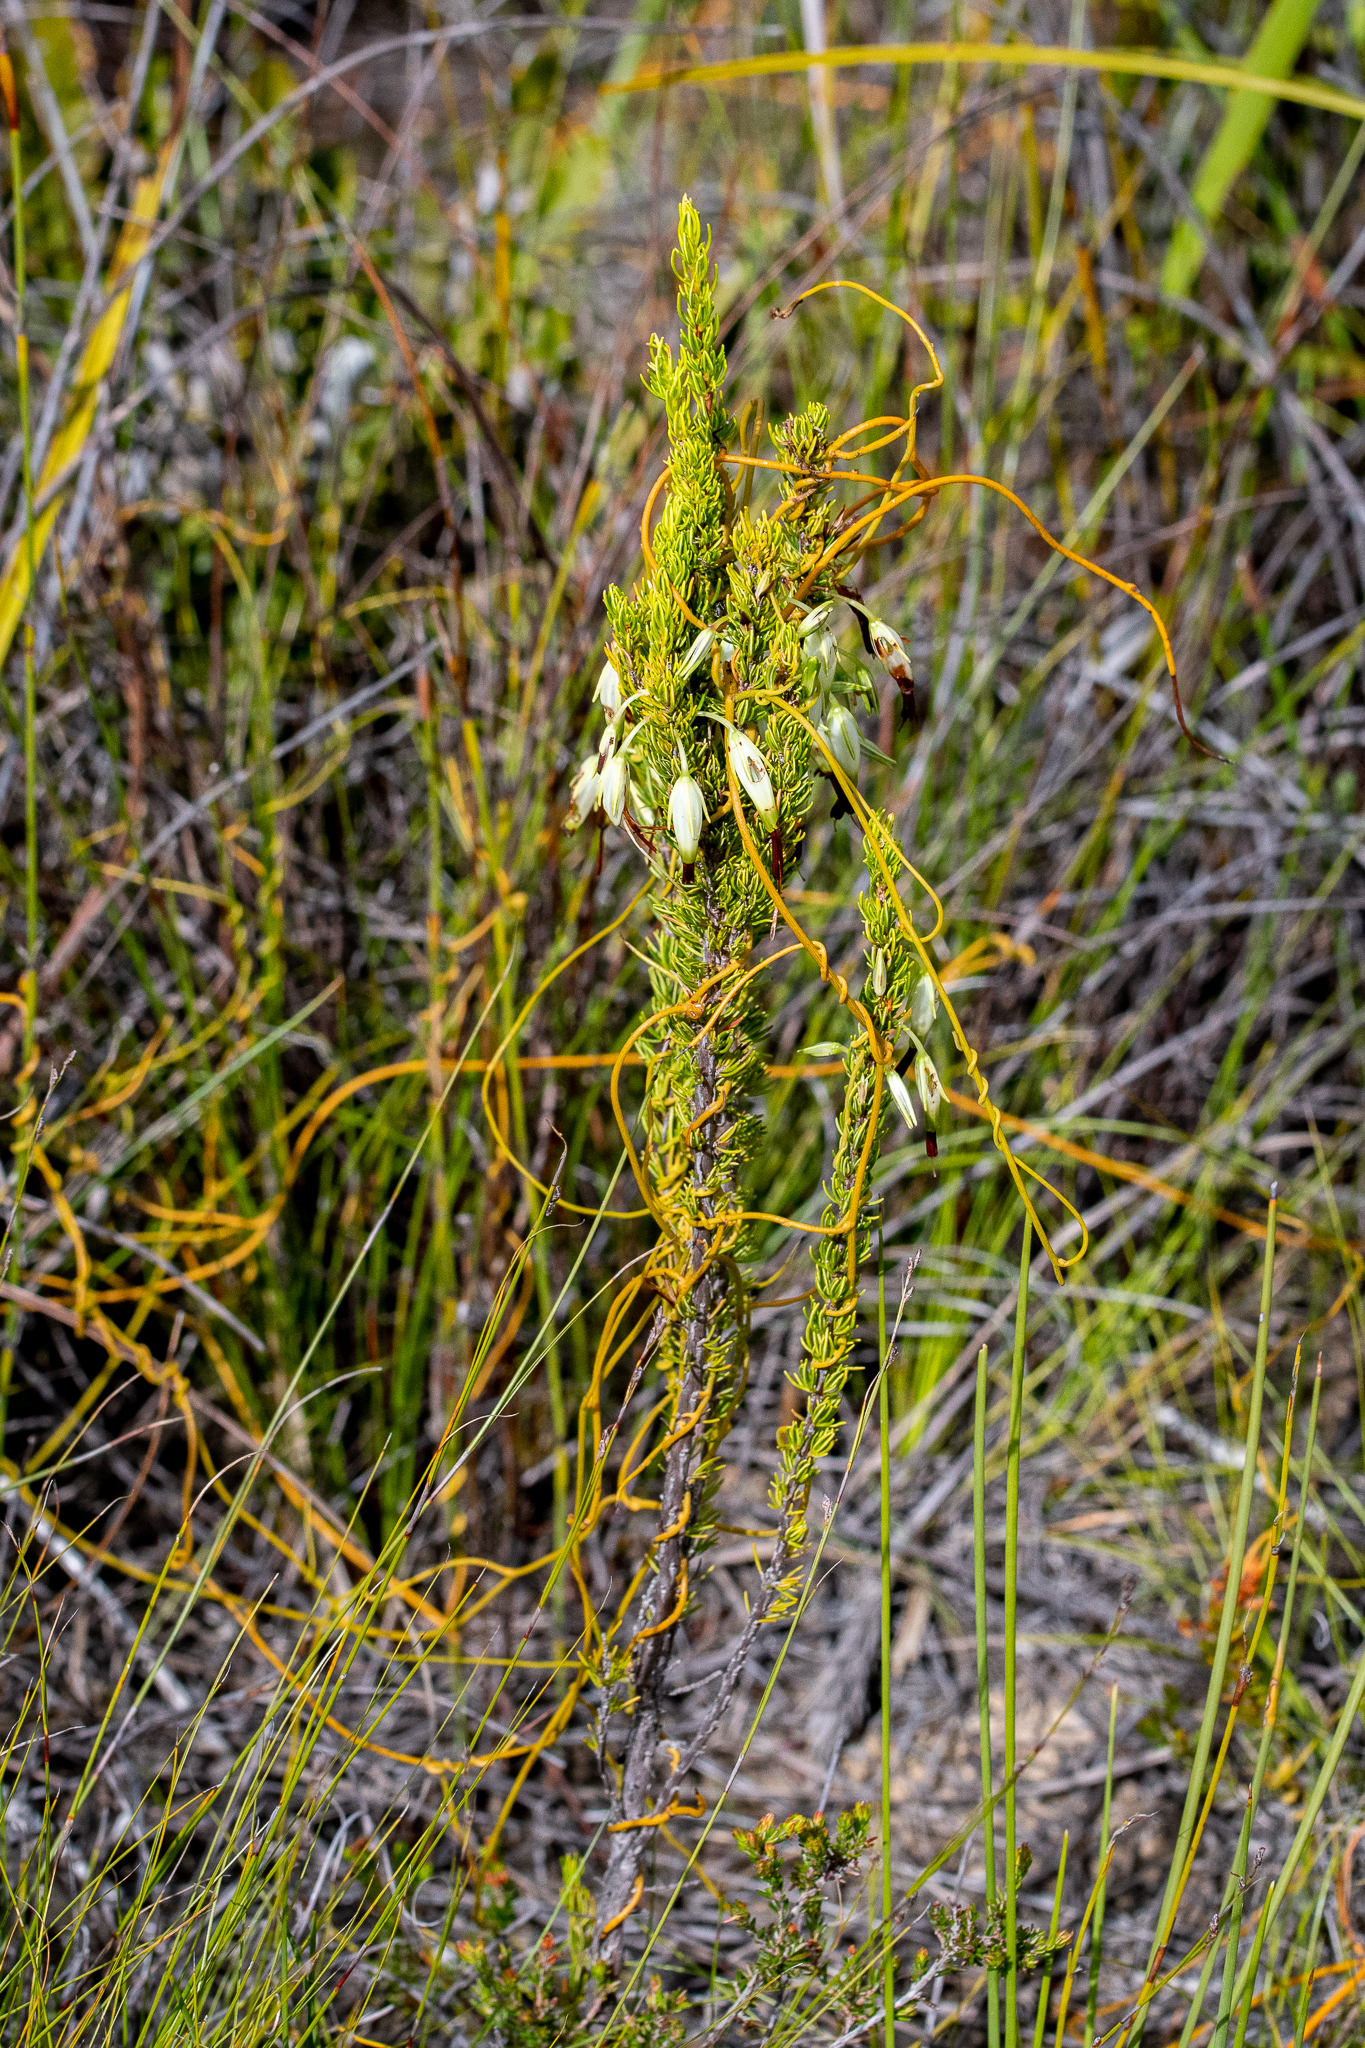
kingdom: Plantae
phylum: Tracheophyta
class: Magnoliopsida
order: Ericales
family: Ericaceae
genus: Erica
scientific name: Erica plukenetii
